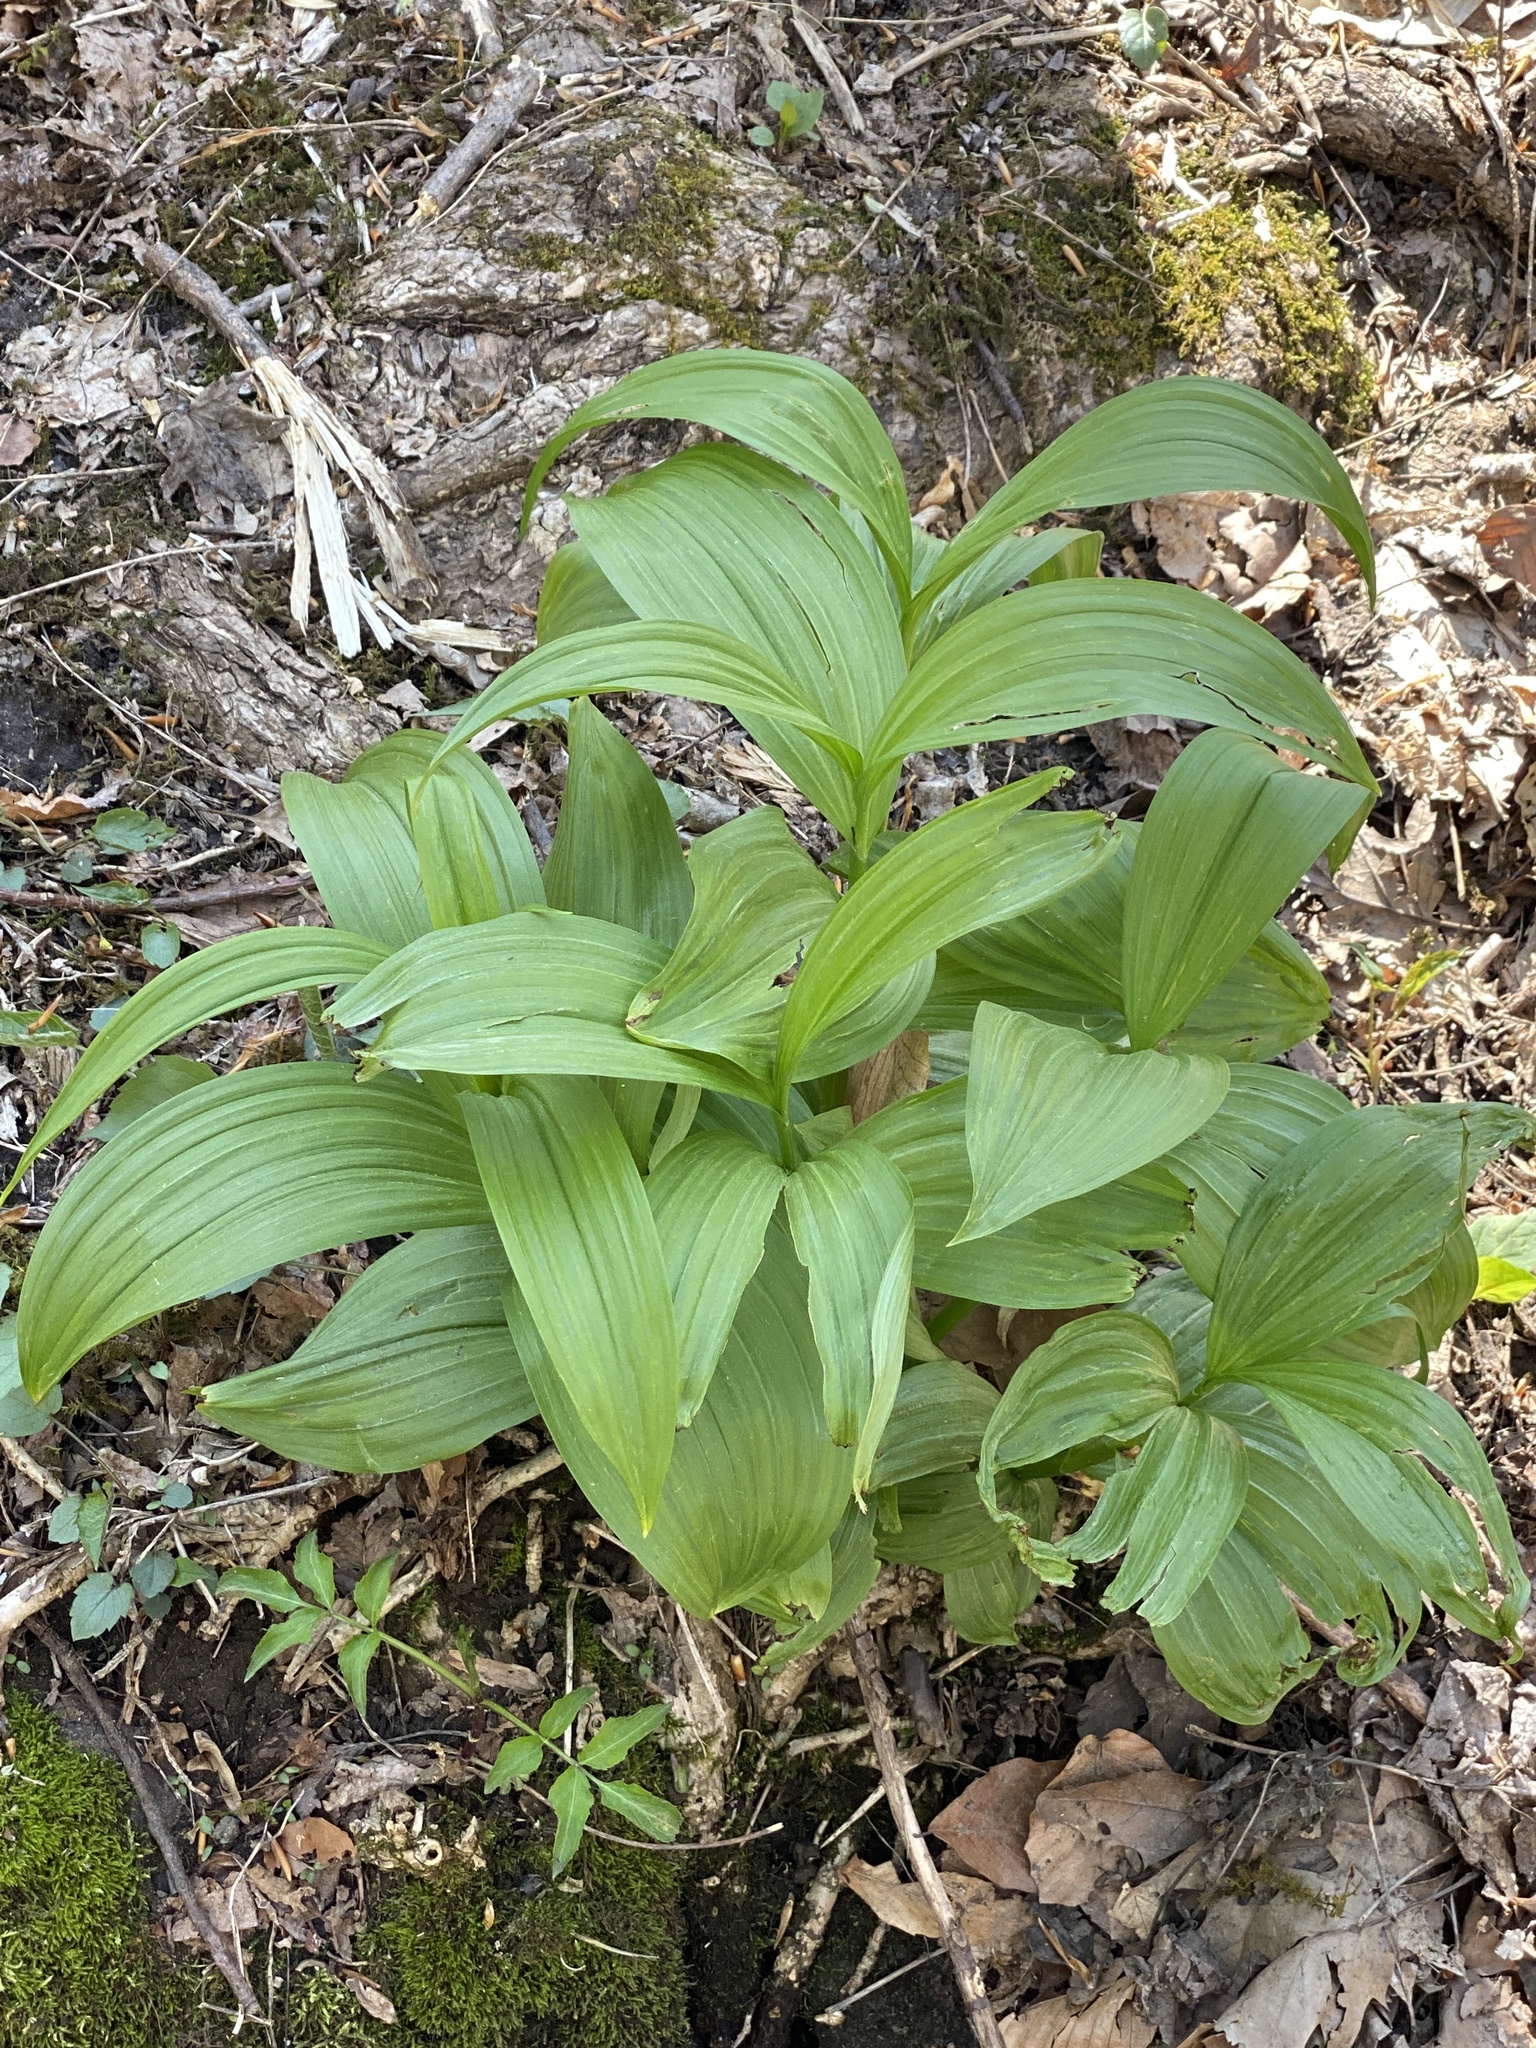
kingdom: Plantae
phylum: Tracheophyta
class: Liliopsida
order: Liliales
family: Melanthiaceae
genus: Veratrum
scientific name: Veratrum viride
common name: American false hellebore
